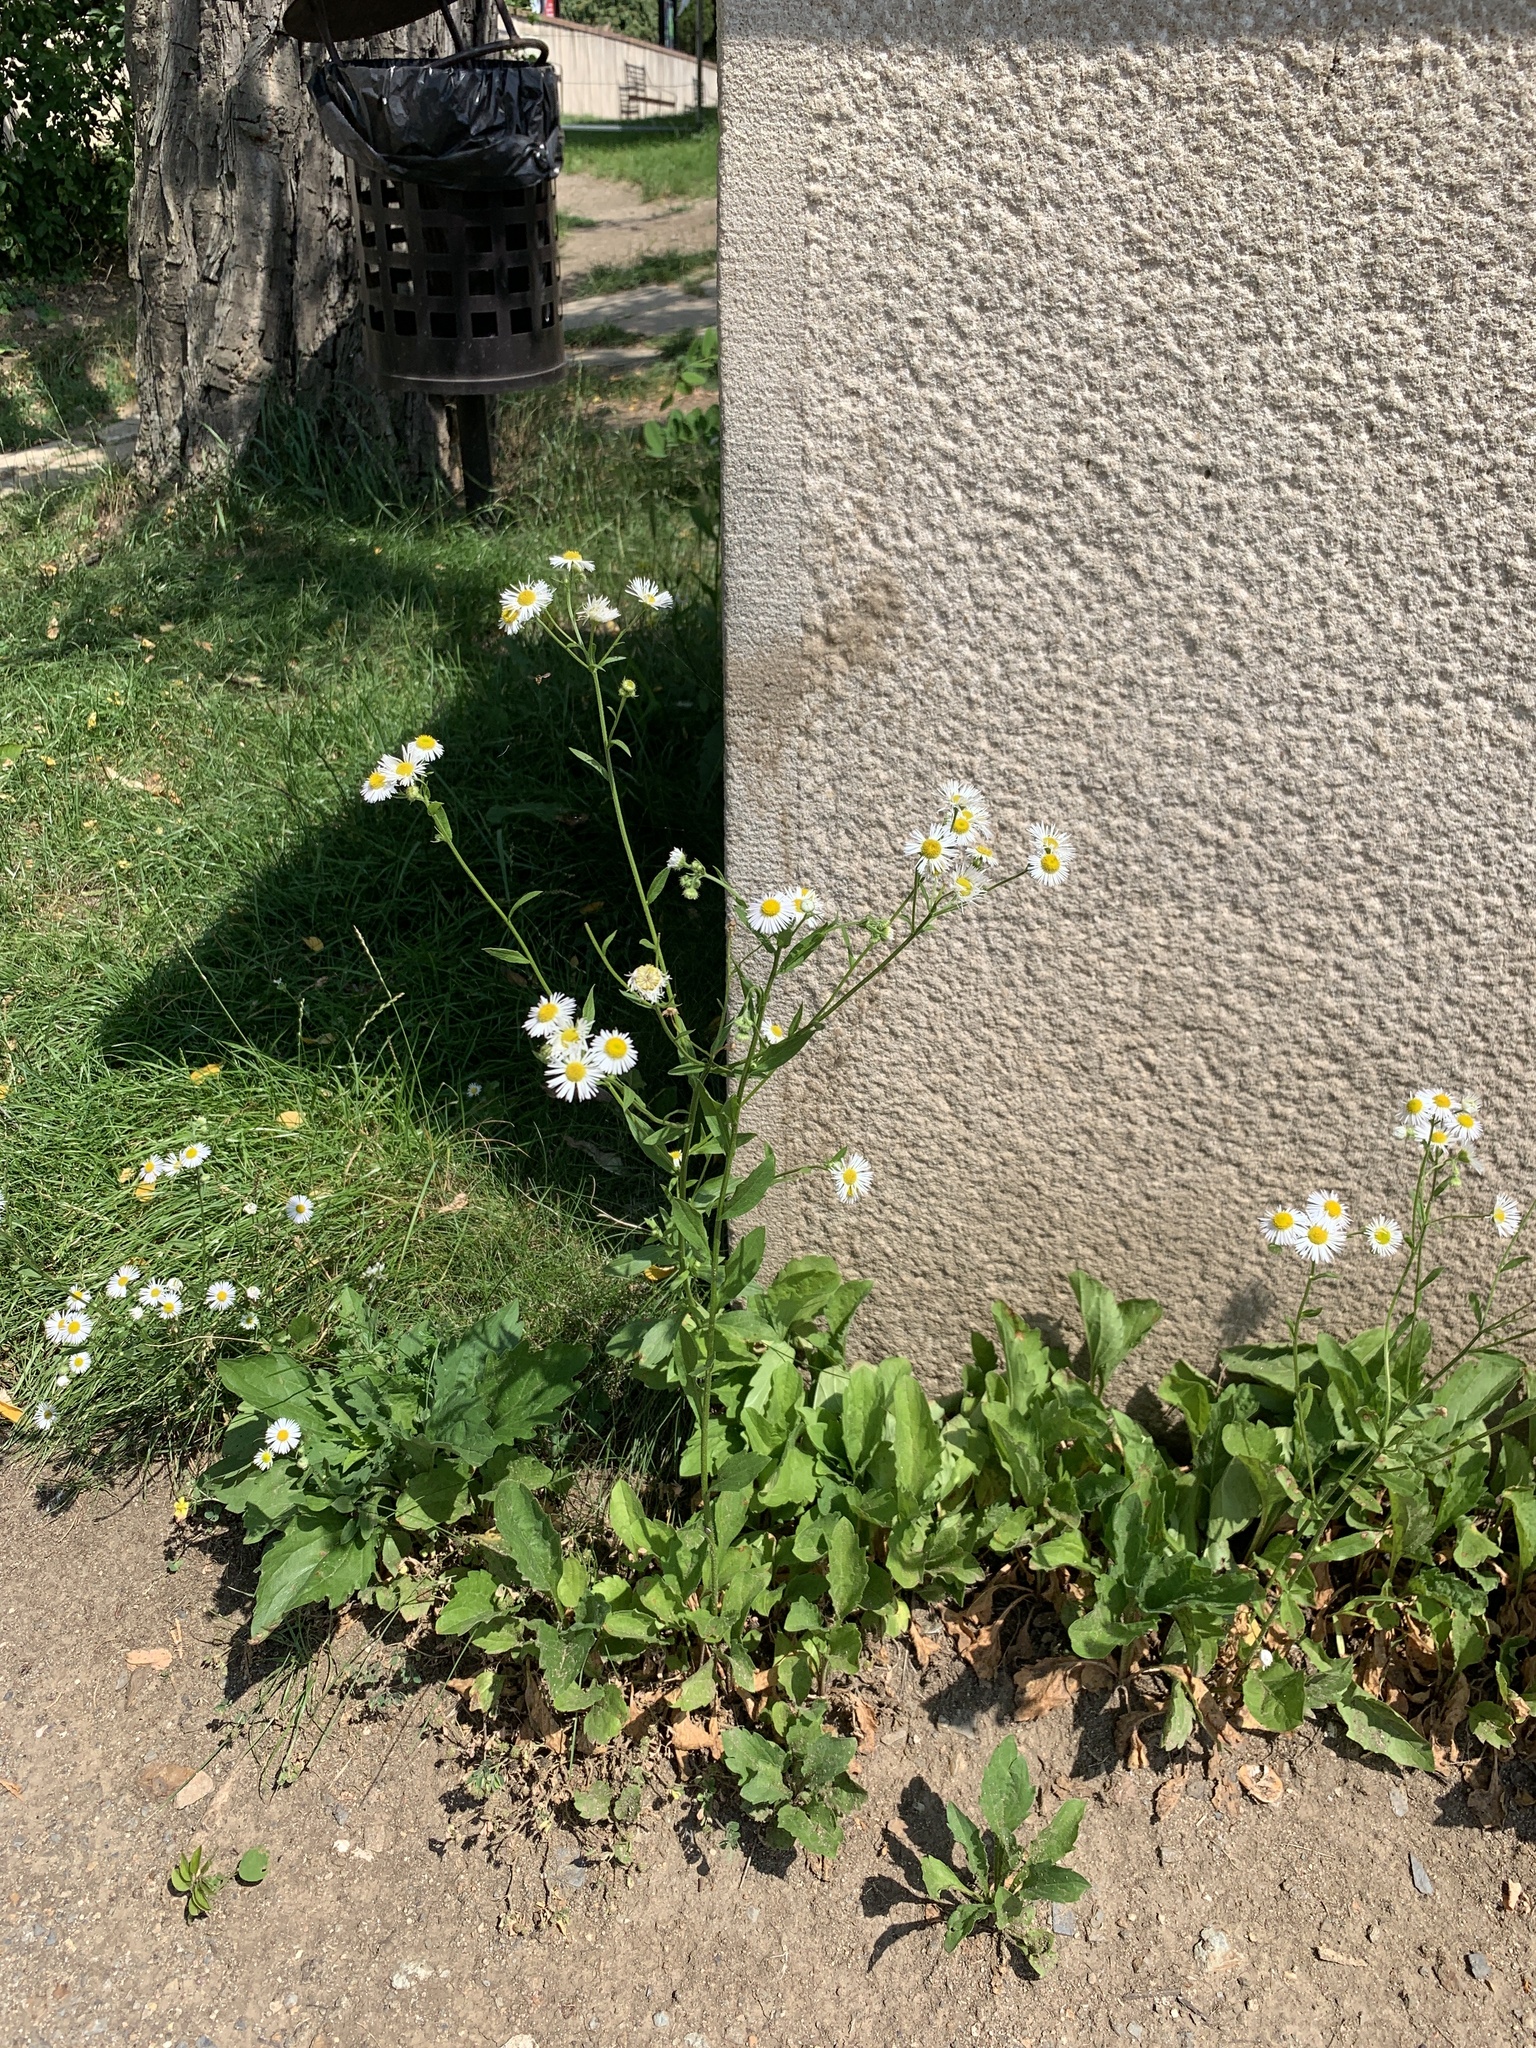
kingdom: Plantae
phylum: Tracheophyta
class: Magnoliopsida
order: Asterales
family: Asteraceae
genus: Erigeron
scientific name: Erigeron annuus
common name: Tall fleabane
